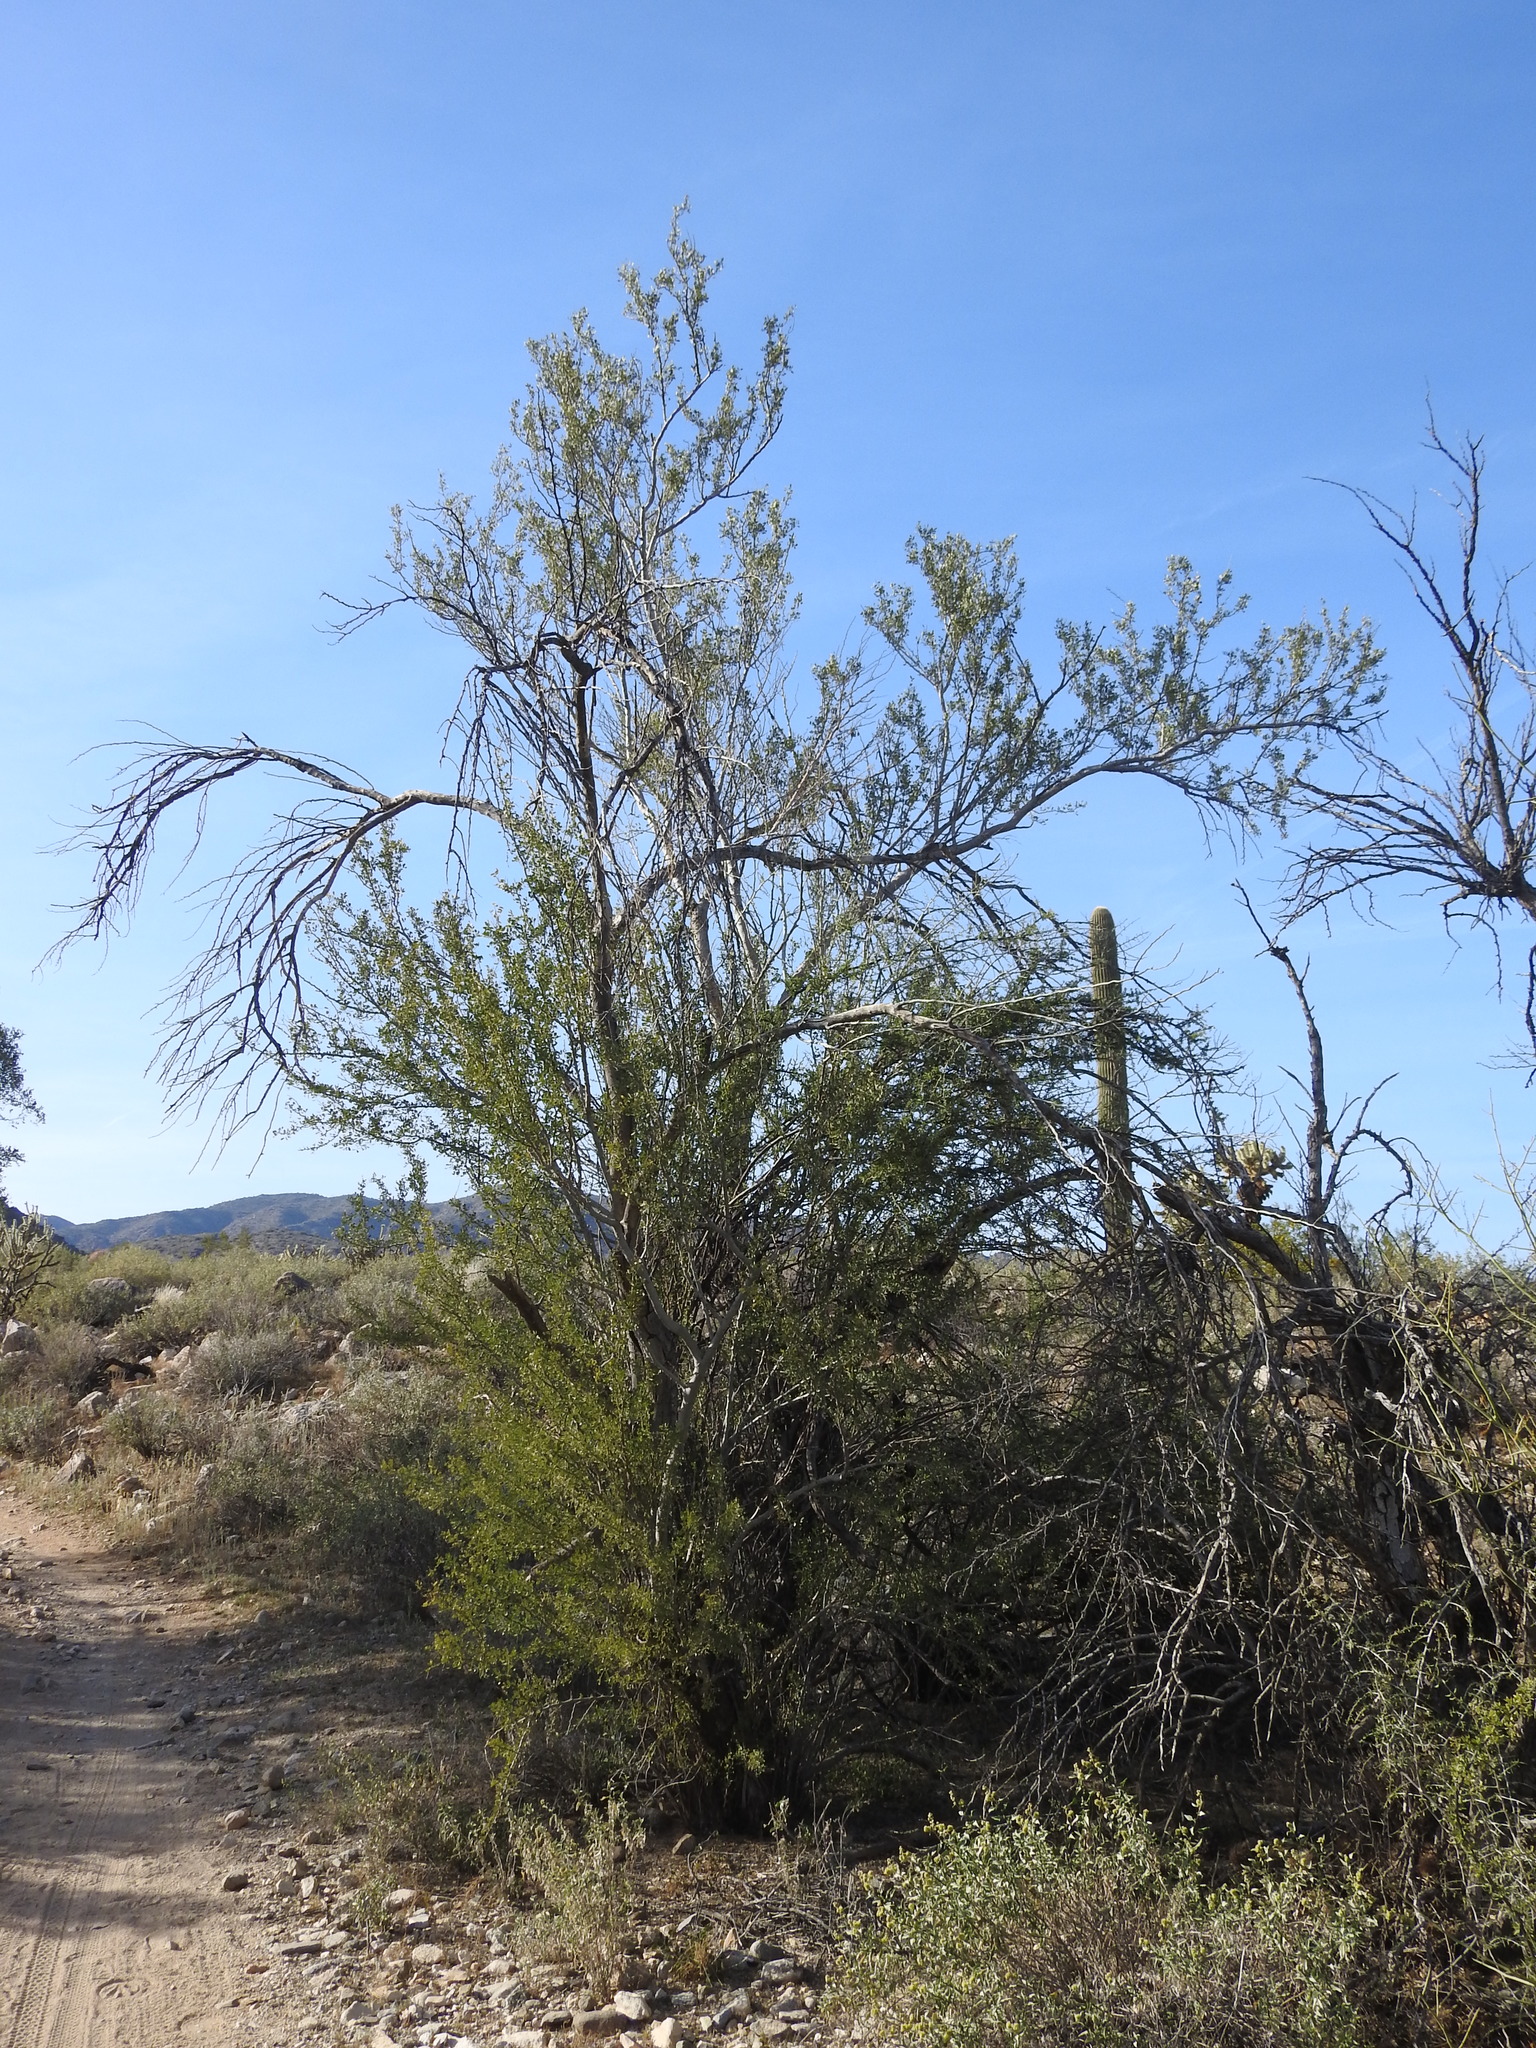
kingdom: Plantae
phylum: Tracheophyta
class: Magnoliopsida
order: Fabales
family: Fabaceae
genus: Olneya
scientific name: Olneya tesota
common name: Desert ironwood
